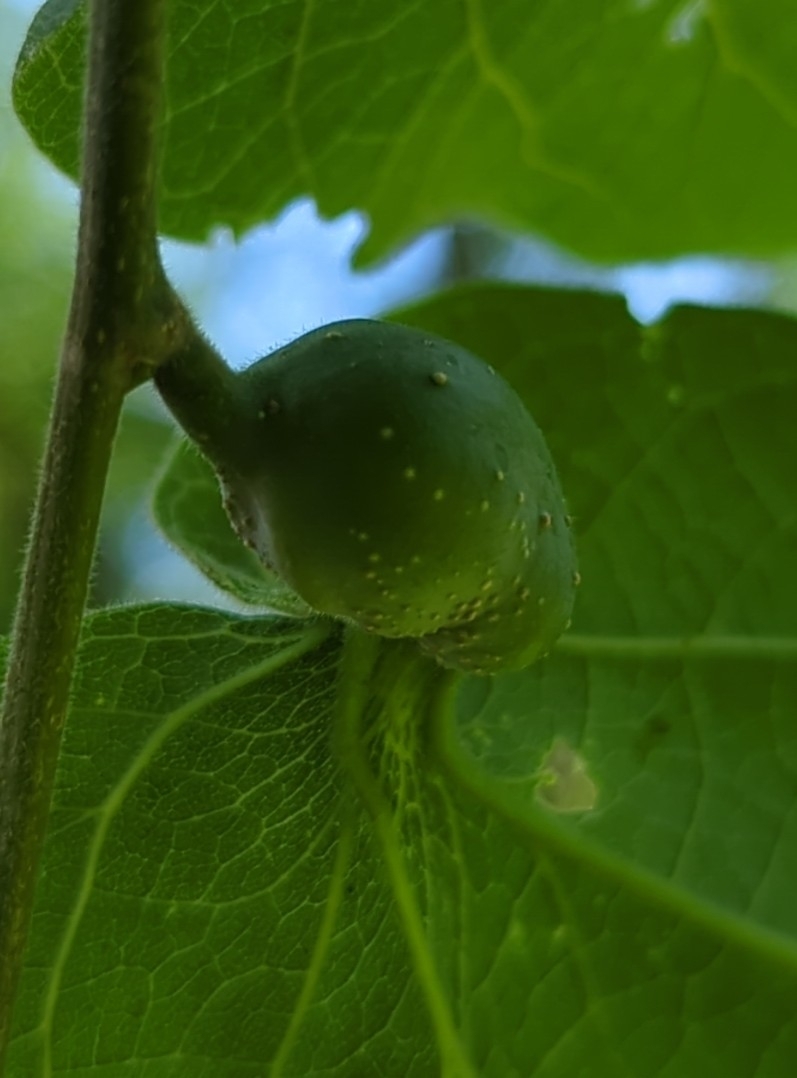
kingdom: Animalia
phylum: Arthropoda
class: Insecta
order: Hemiptera
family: Aphalaridae
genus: Pachypsylla
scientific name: Pachypsylla venusta
